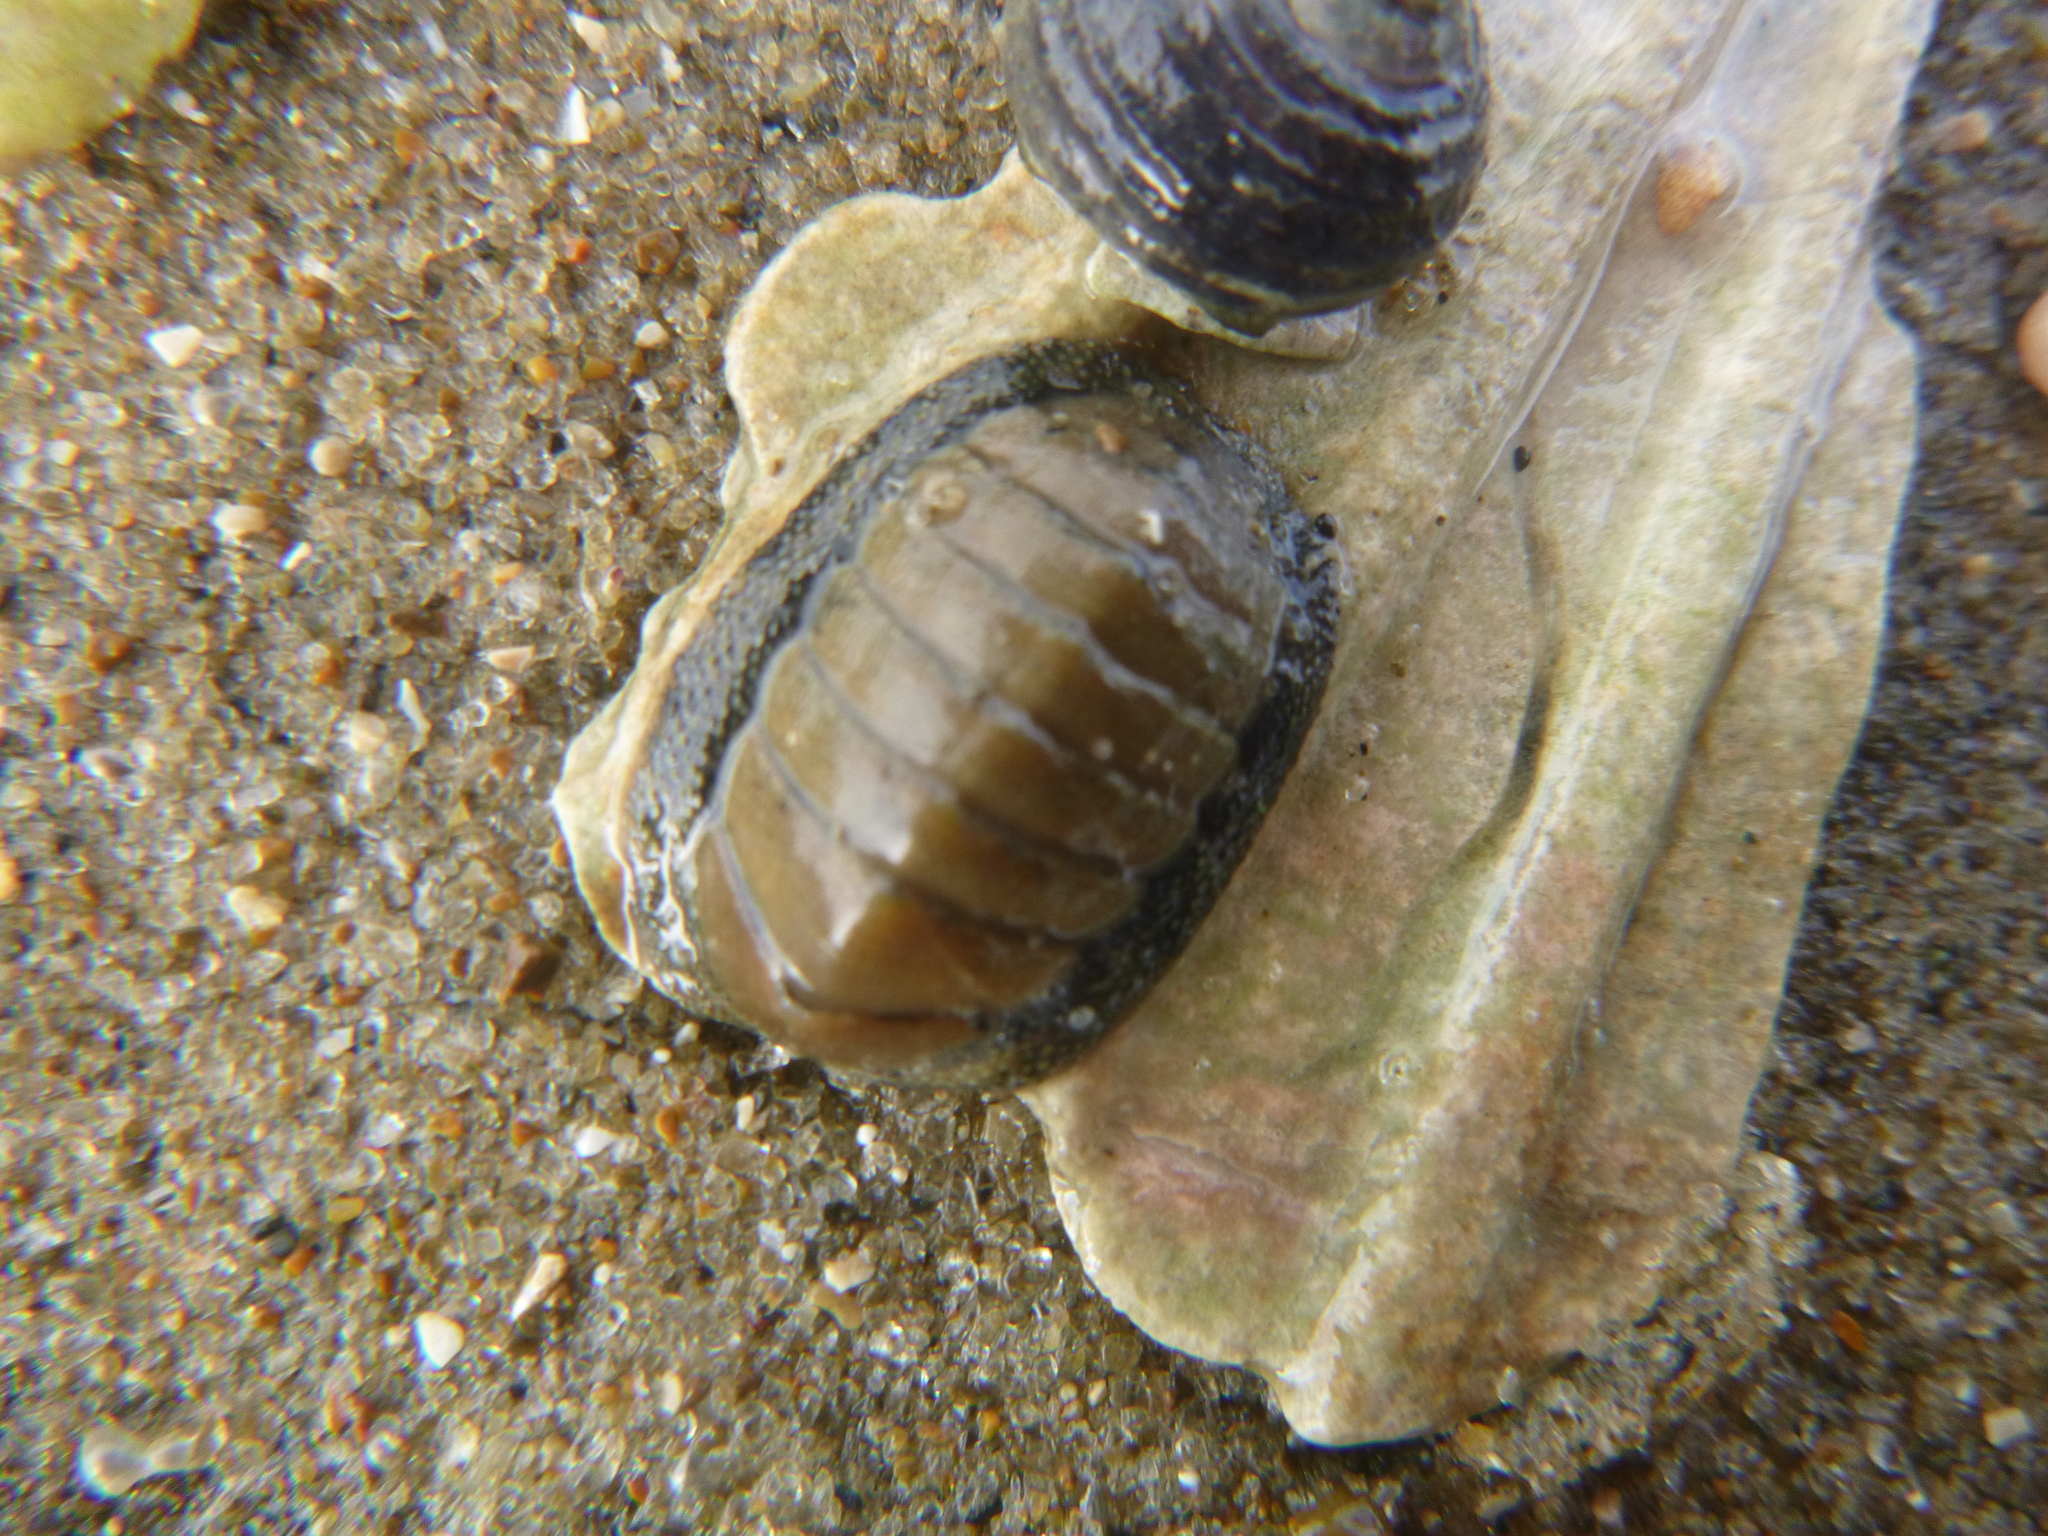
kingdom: Animalia
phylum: Mollusca
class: Polyplacophora
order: Chitonida
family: Chitonidae
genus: Chiton
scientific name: Chiton glaucus
